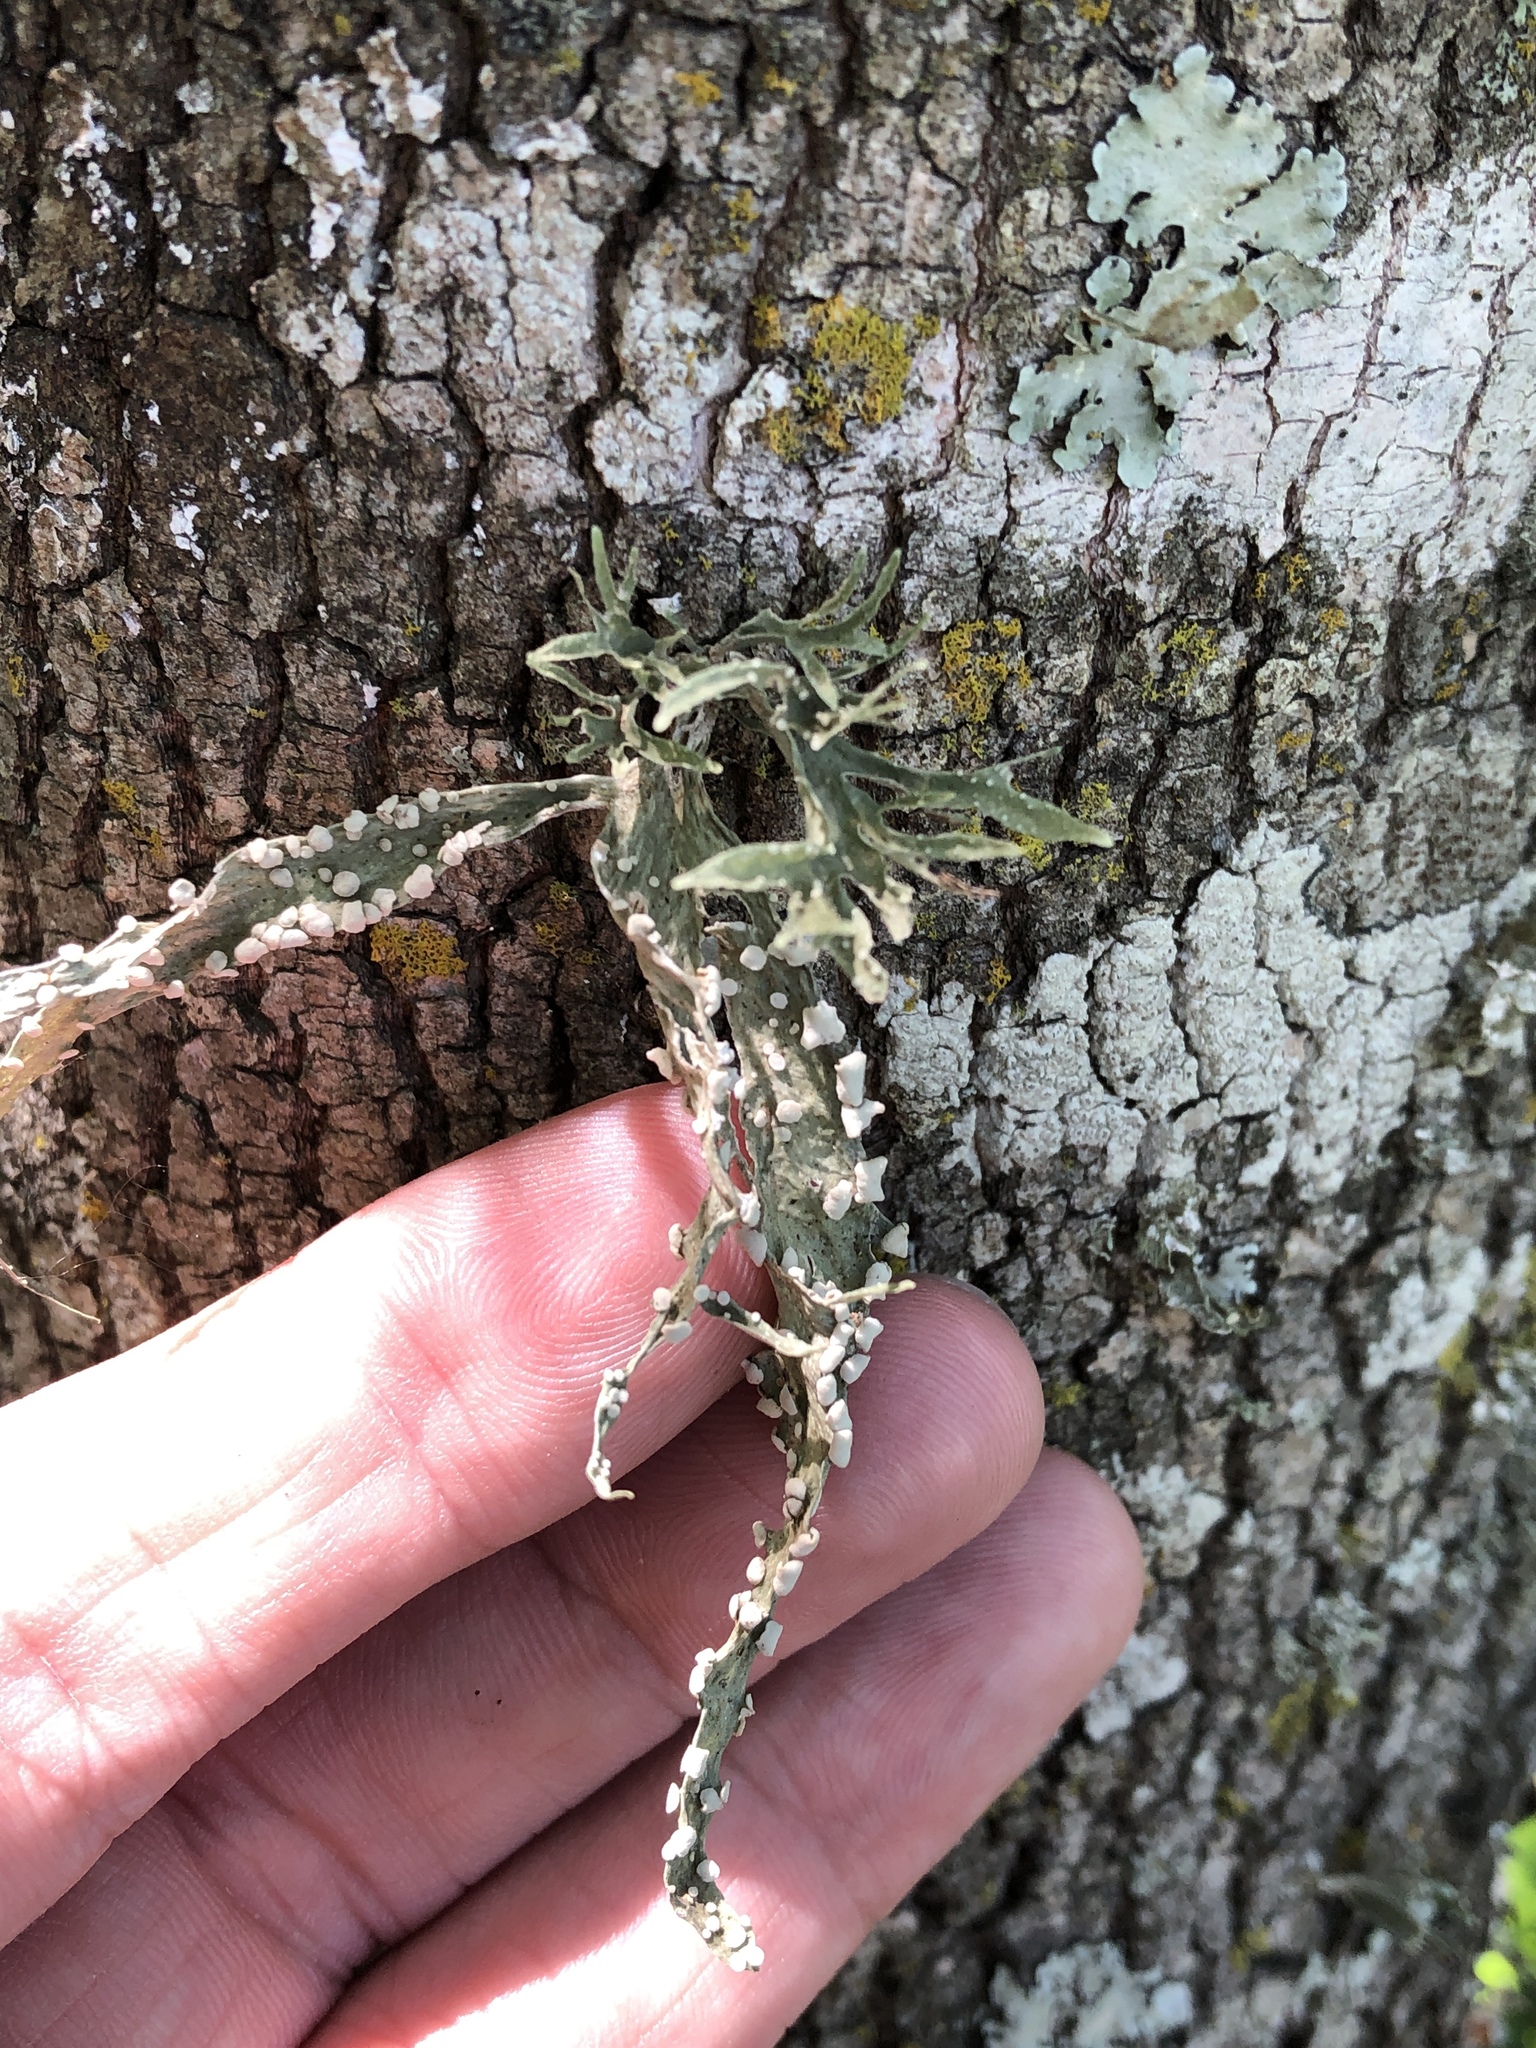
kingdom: Fungi
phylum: Ascomycota
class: Lecanoromycetes
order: Lecanorales
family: Ramalinaceae
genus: Ramalina
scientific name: Ramalina celastri
